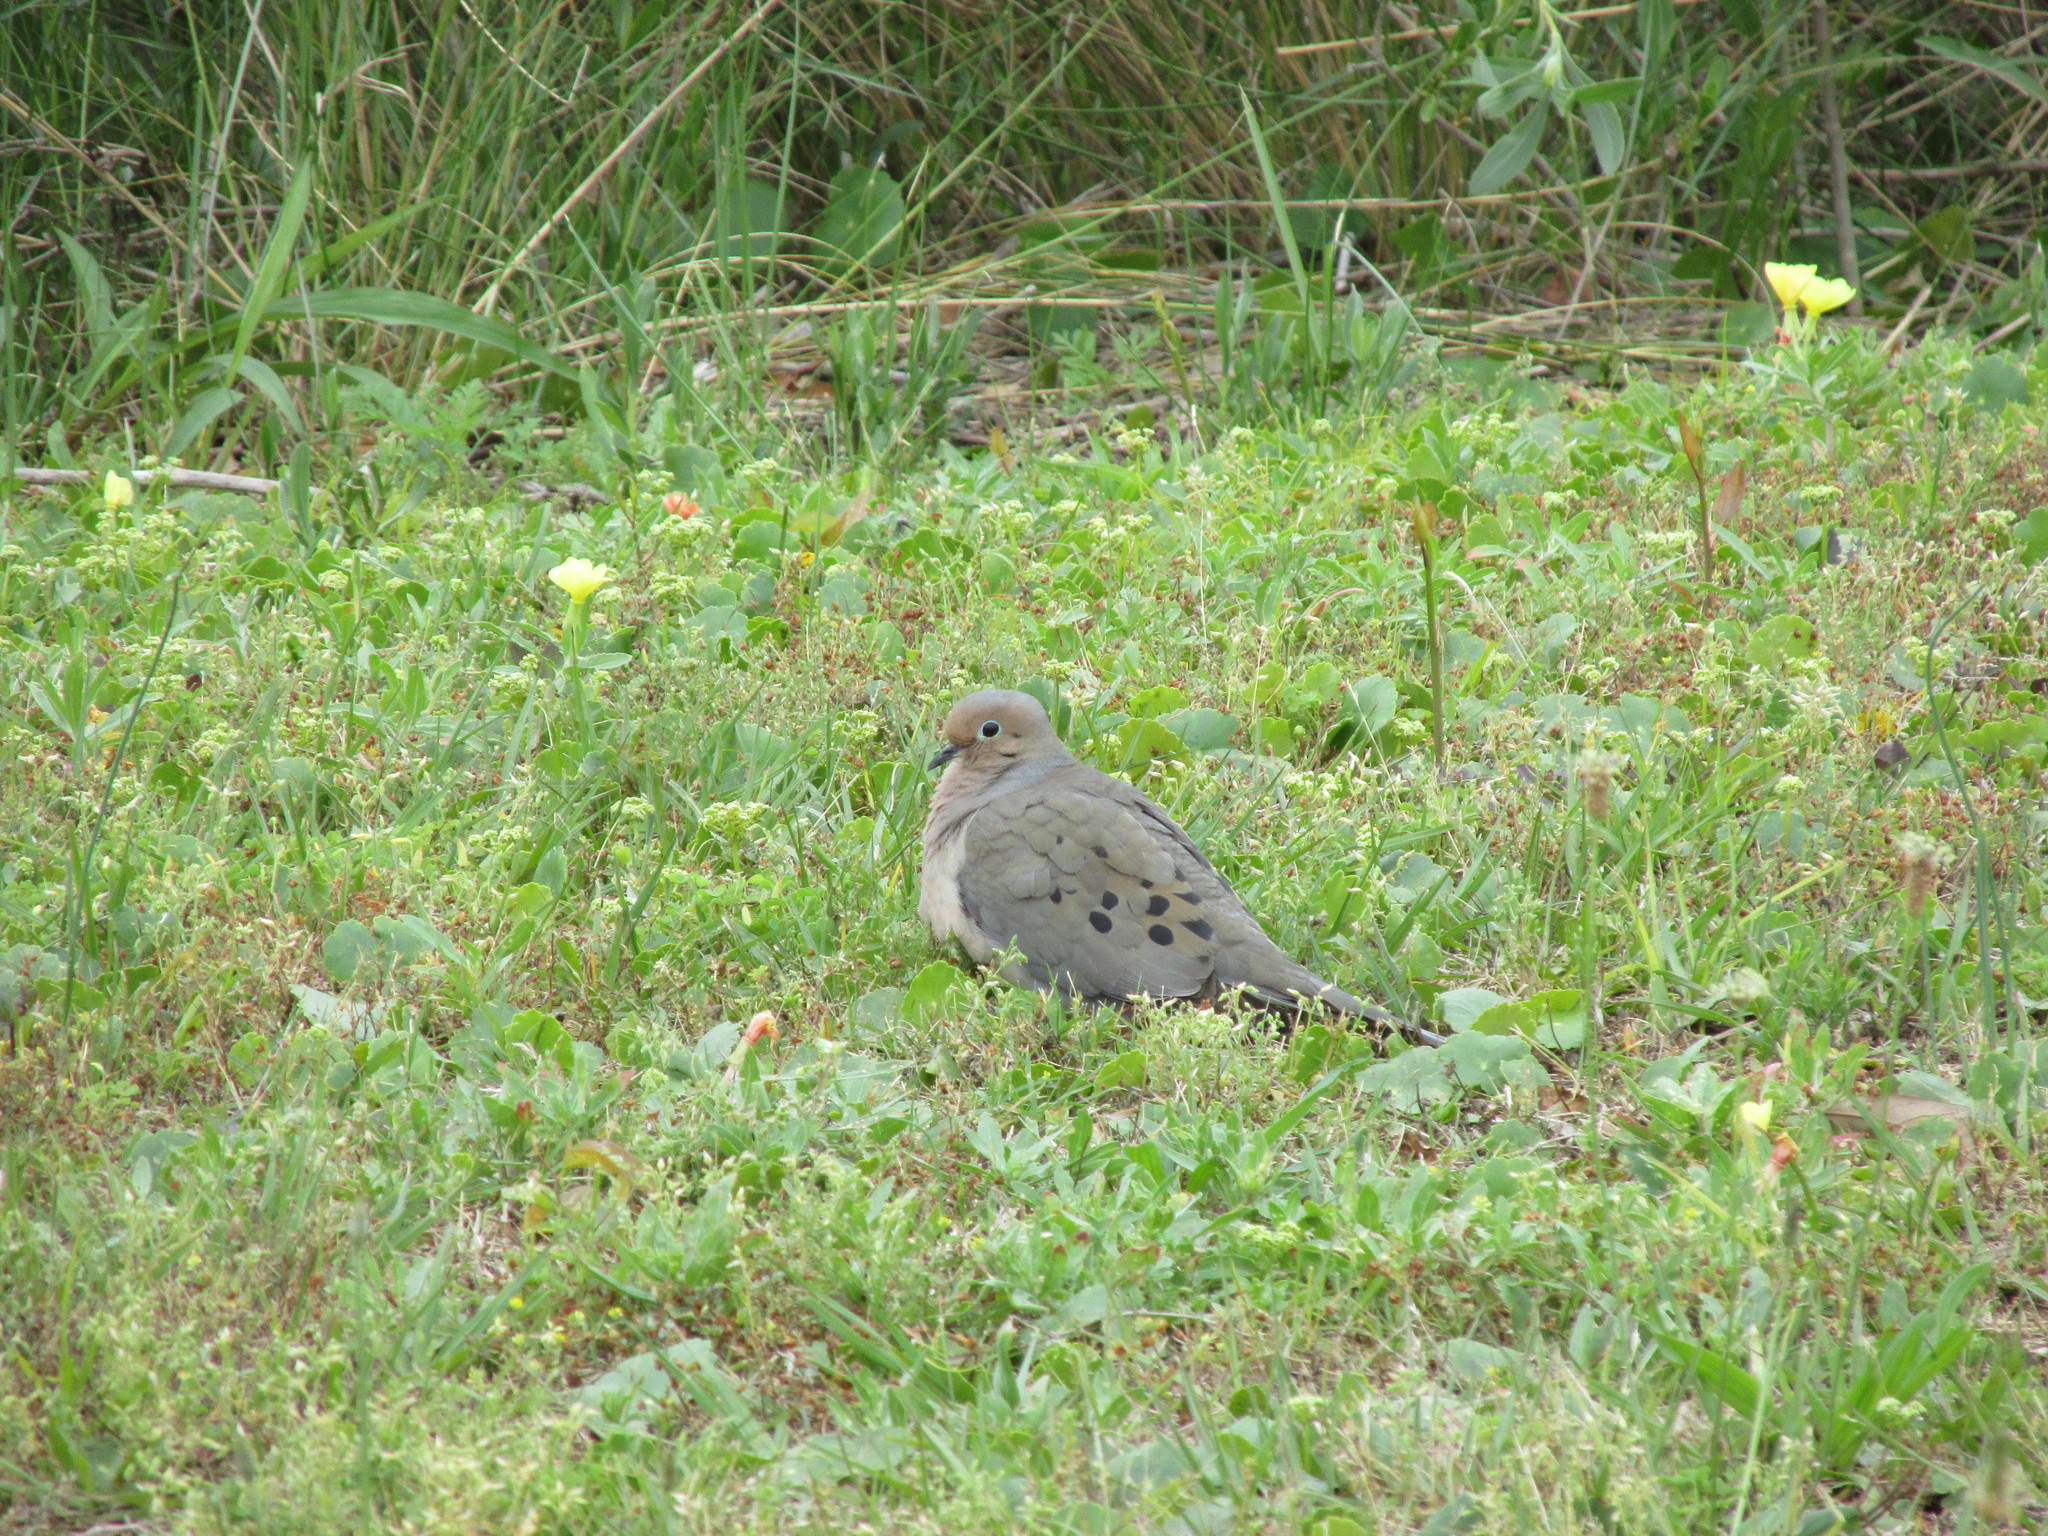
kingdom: Animalia
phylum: Chordata
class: Aves
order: Columbiformes
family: Columbidae
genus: Zenaida
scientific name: Zenaida macroura
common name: Mourning dove
